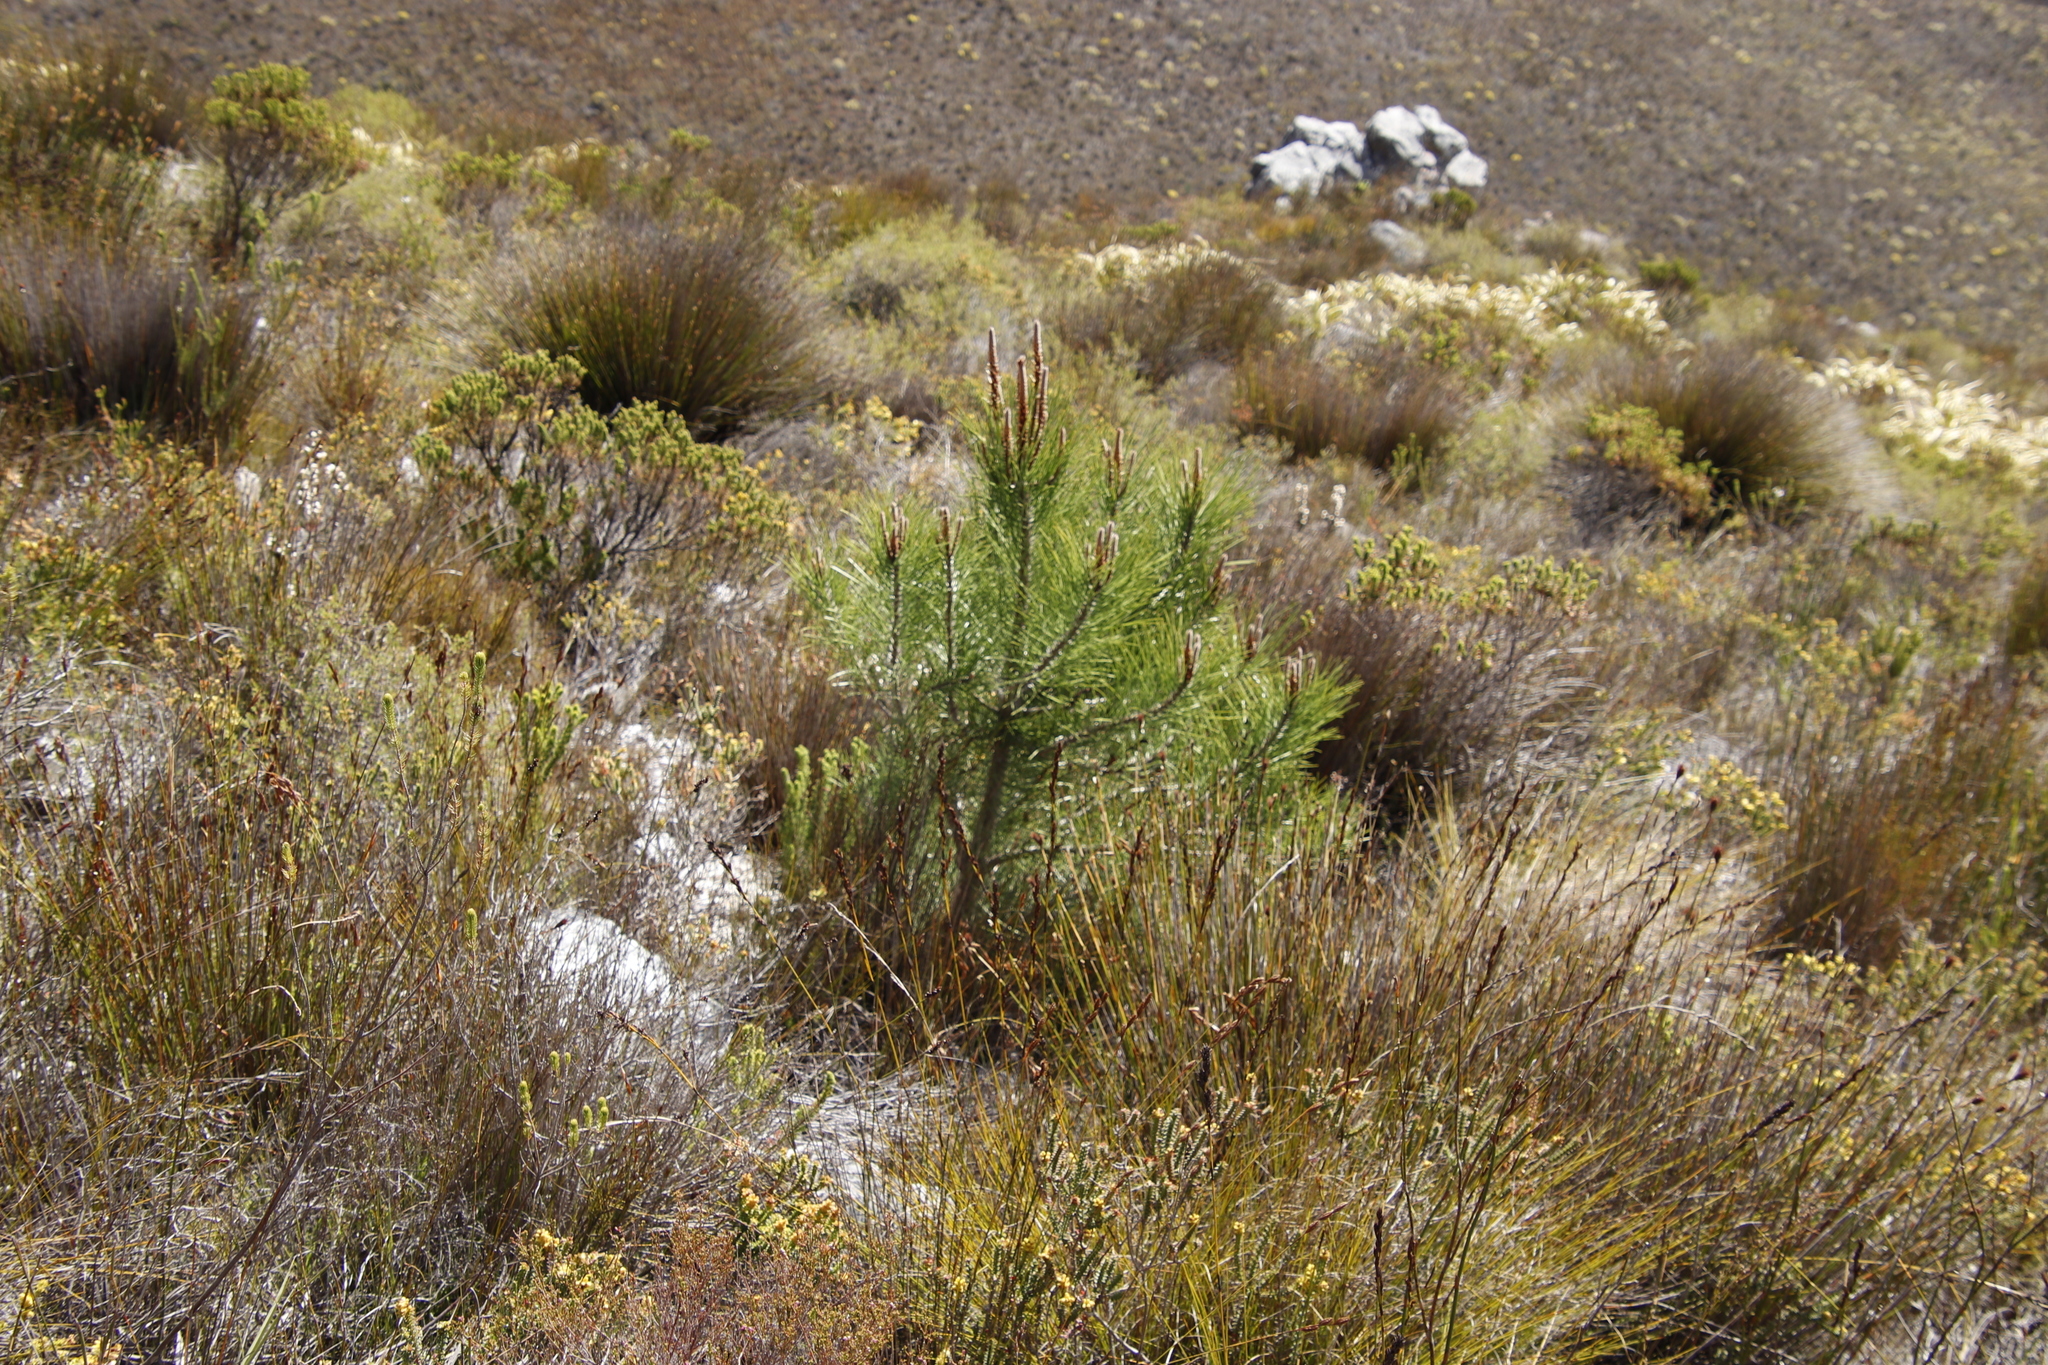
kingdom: Plantae
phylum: Tracheophyta
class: Pinopsida
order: Pinales
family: Pinaceae
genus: Pinus
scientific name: Pinus pinaster
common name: Maritime pine
